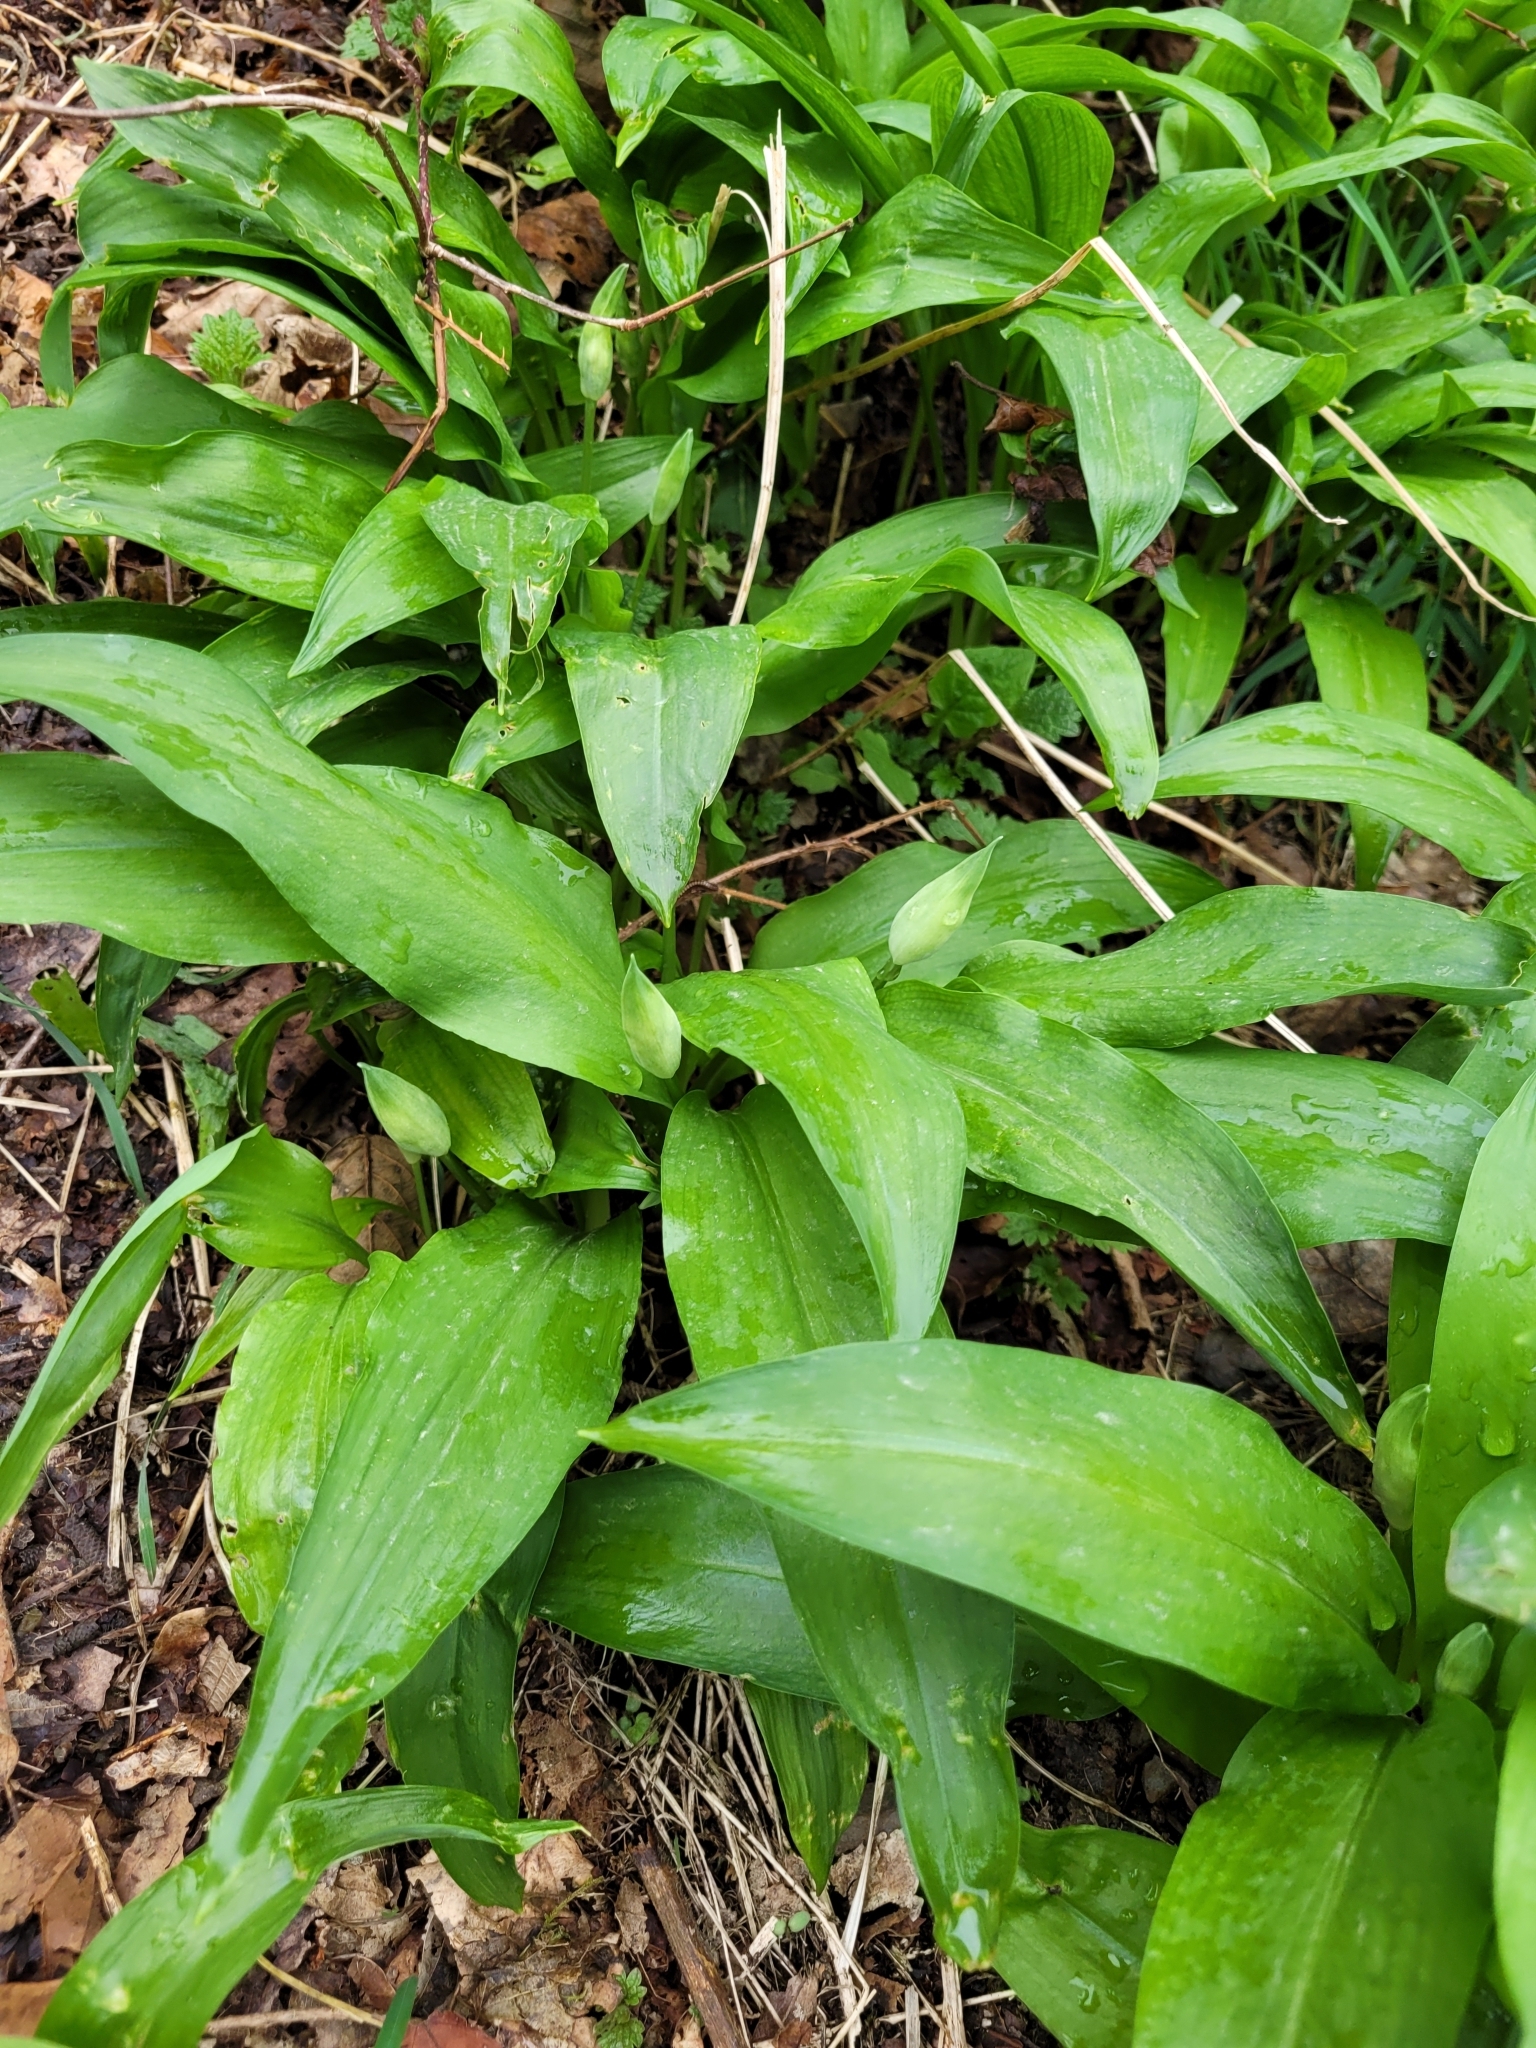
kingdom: Plantae
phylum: Tracheophyta
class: Liliopsida
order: Asparagales
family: Amaryllidaceae
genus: Allium
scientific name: Allium ursinum
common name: Ramsons
